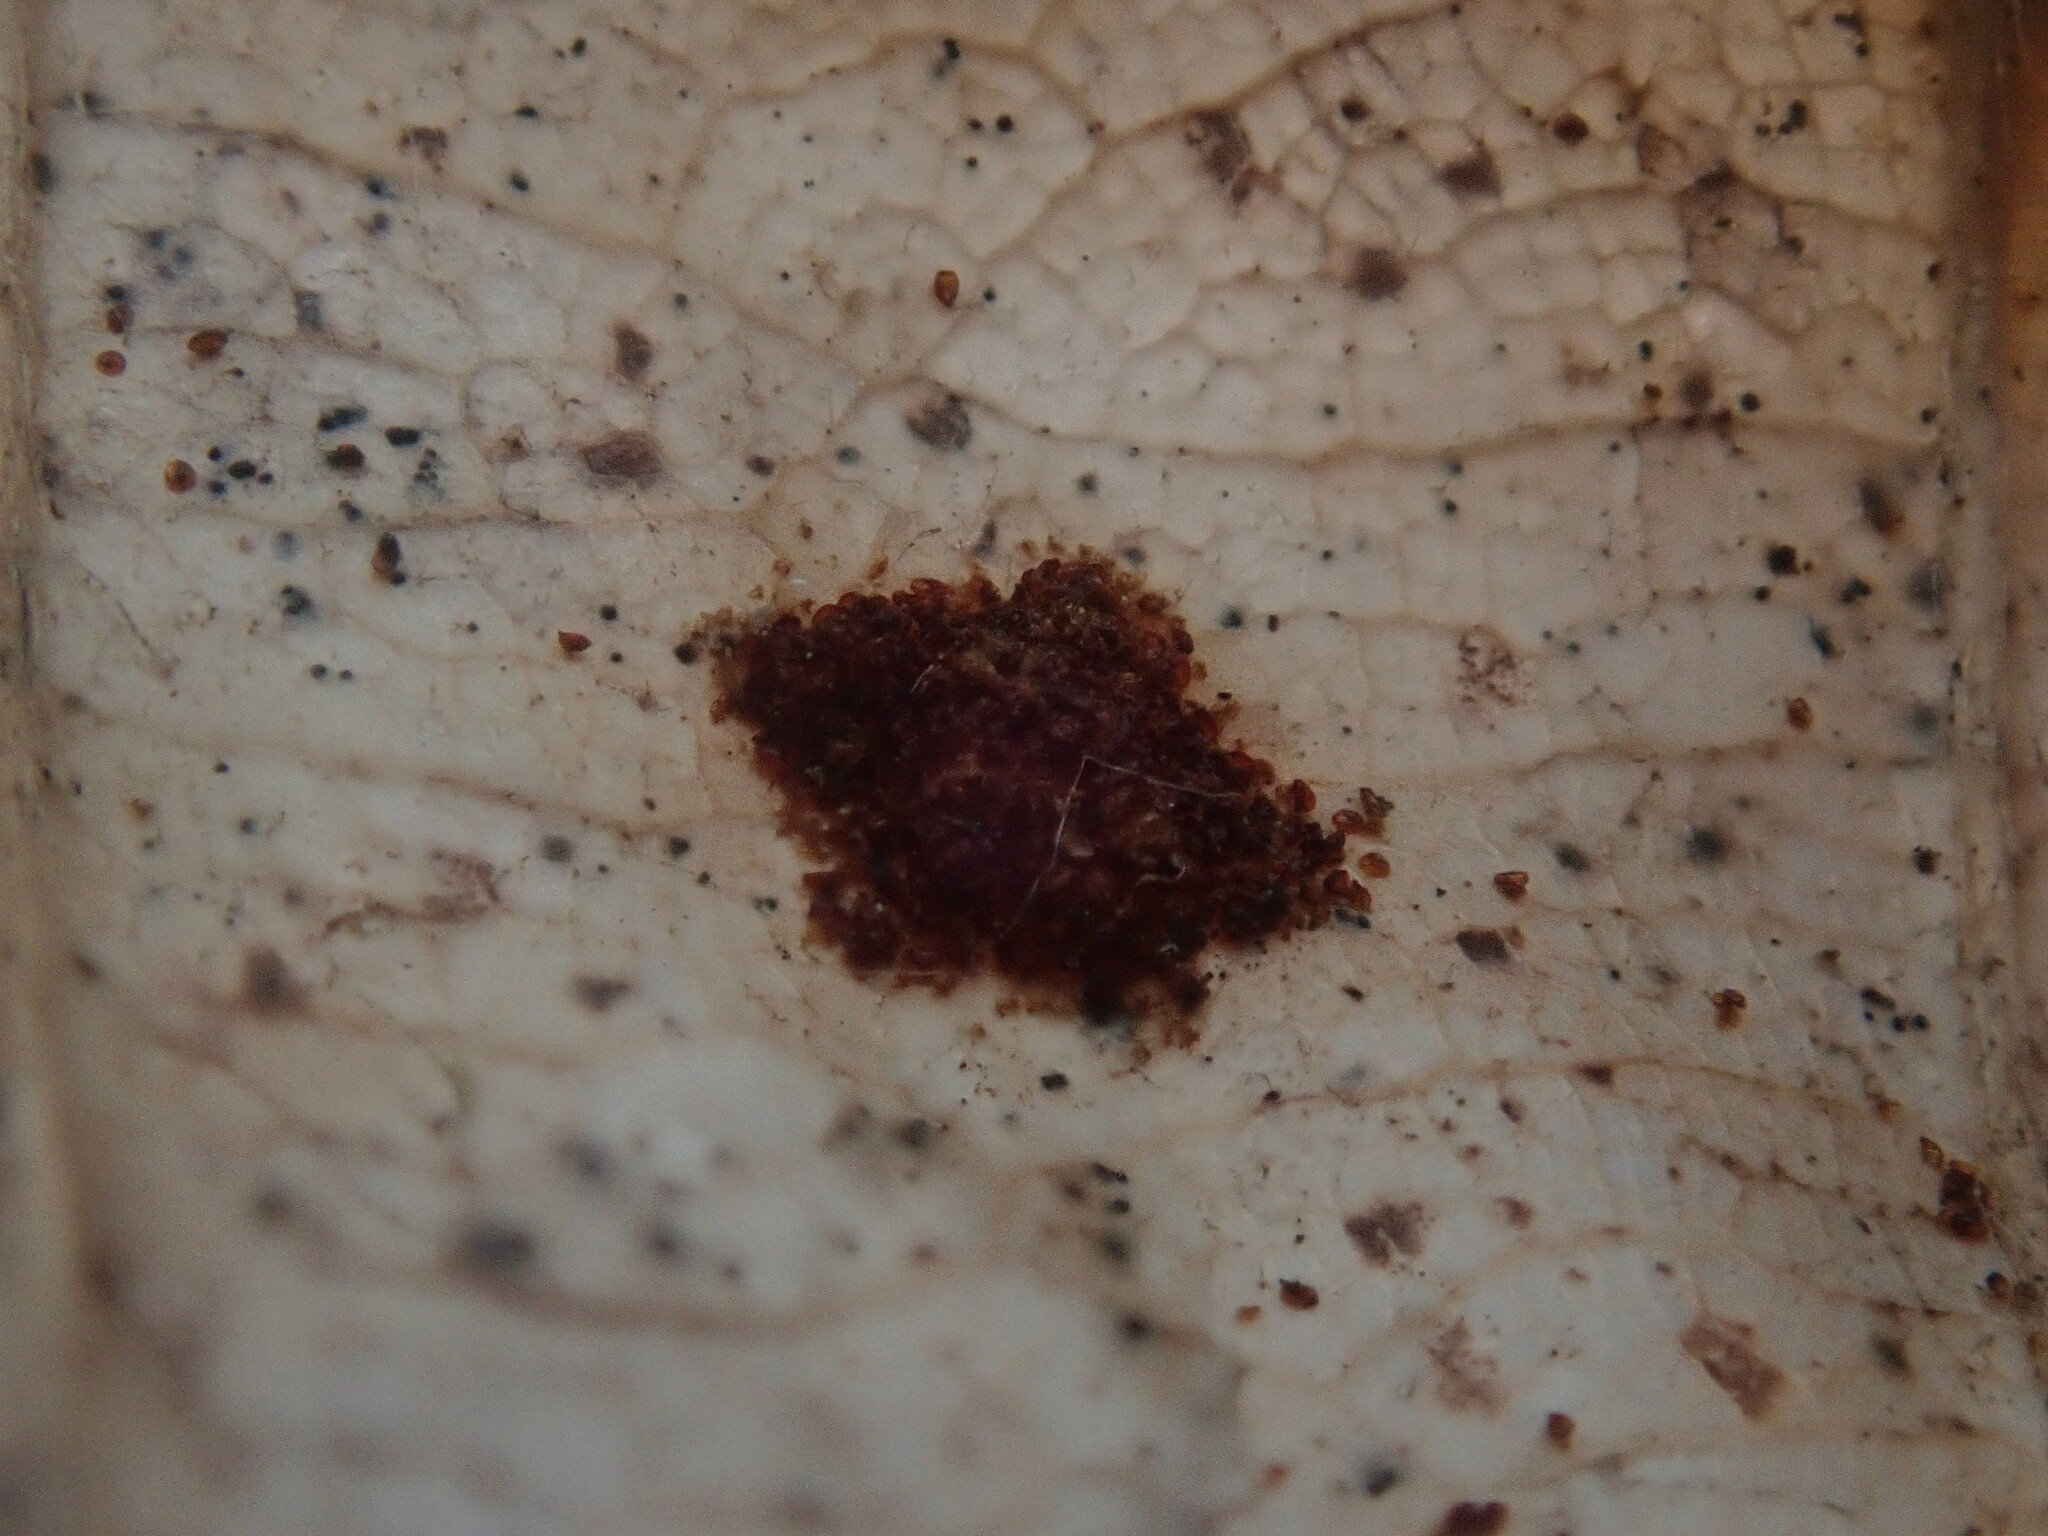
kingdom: Animalia
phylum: Arthropoda
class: Arachnida
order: Trombidiformes
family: Eriophyidae
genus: Acalitus
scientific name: Acalitus
